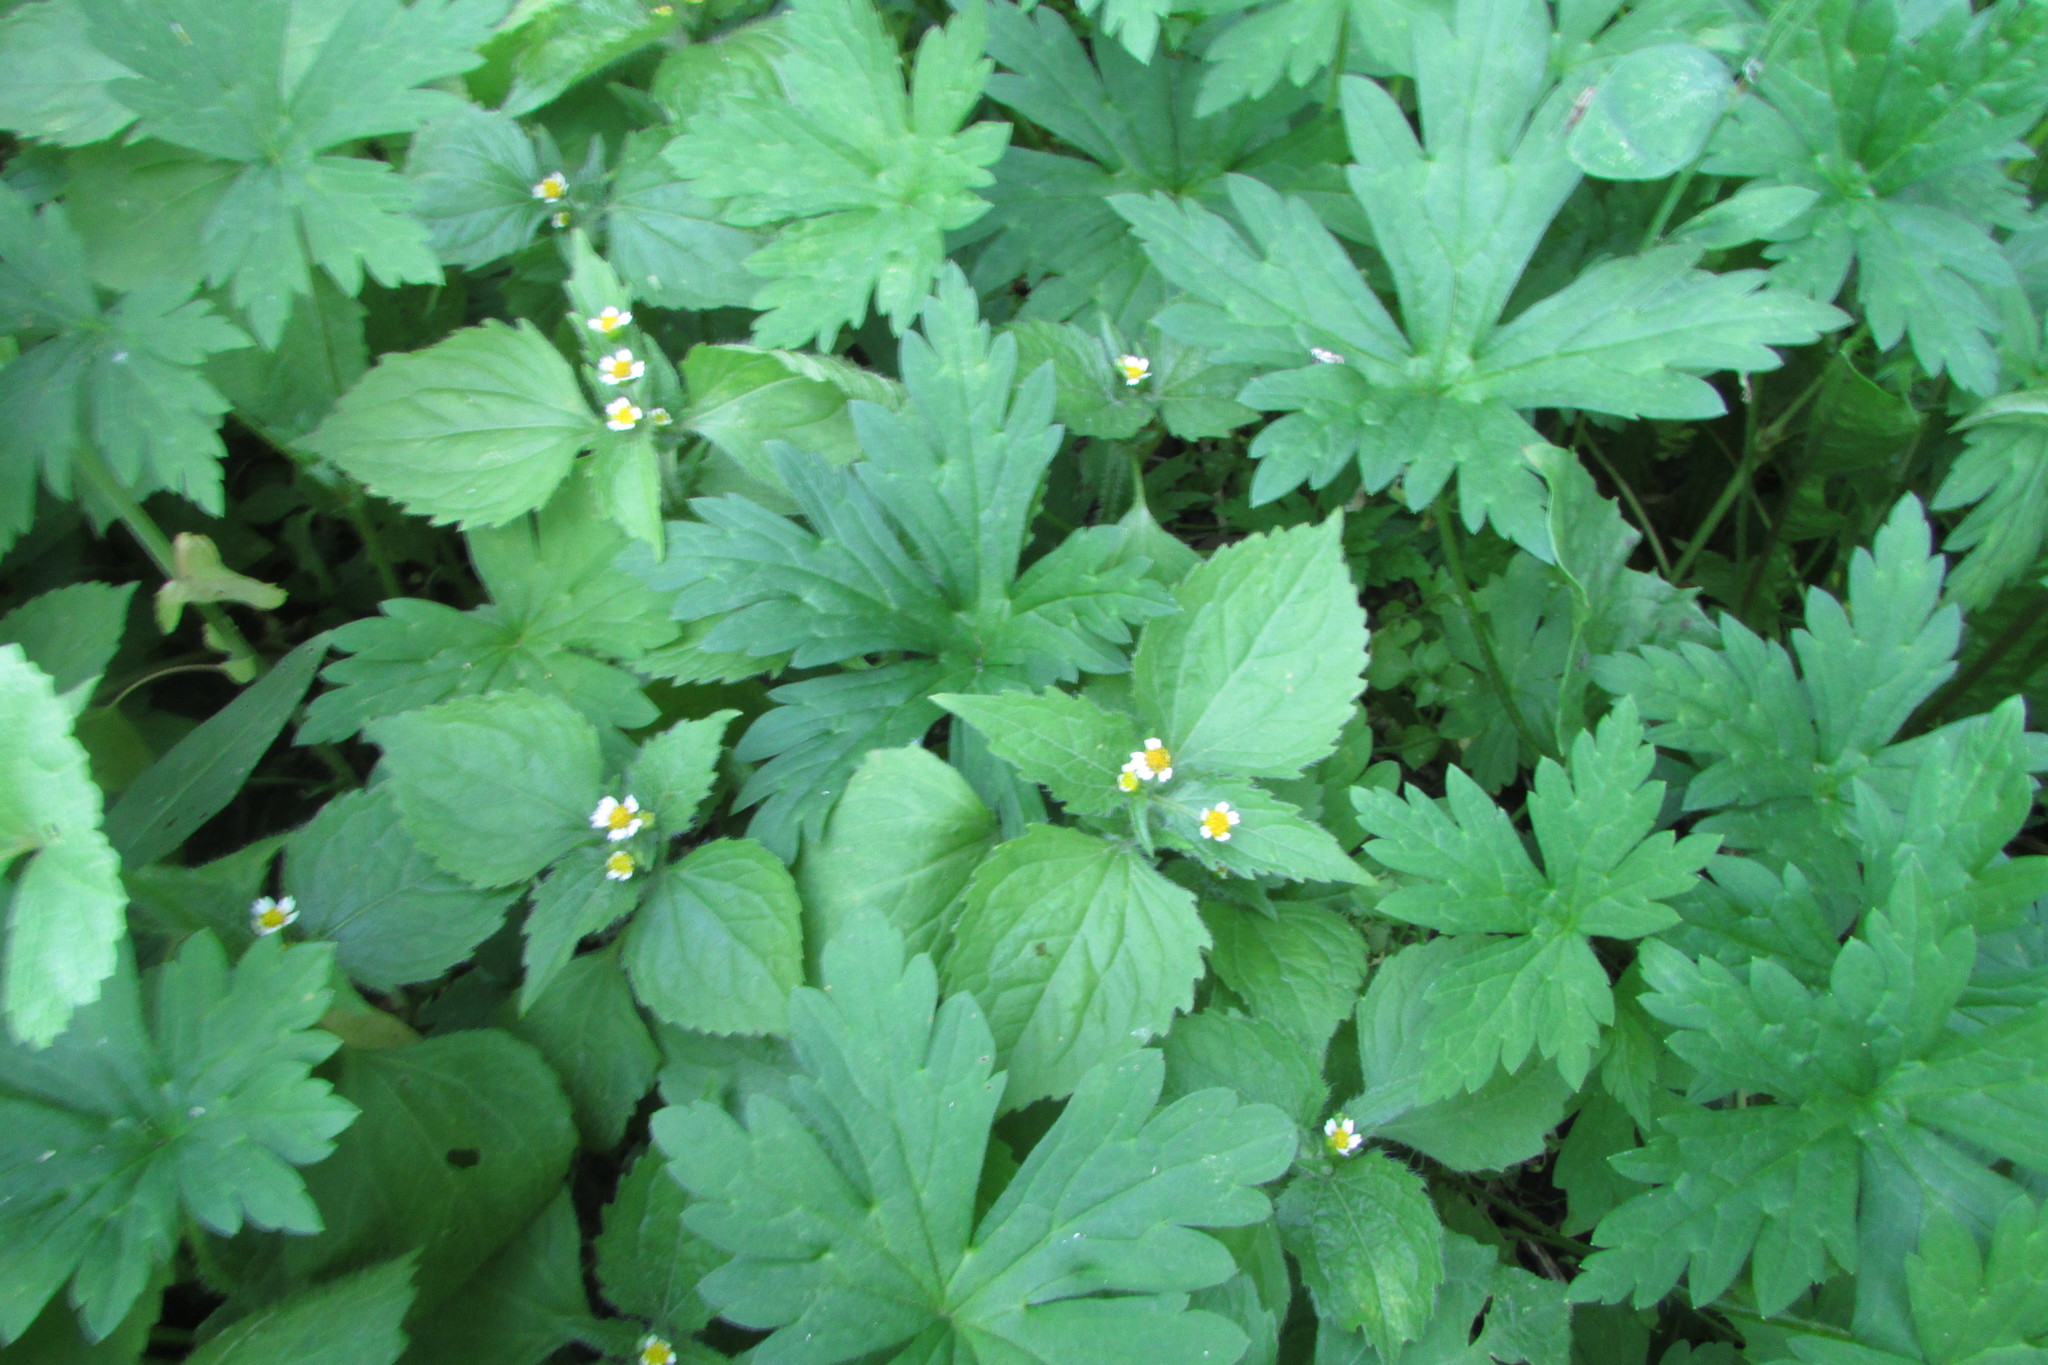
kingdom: Plantae
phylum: Tracheophyta
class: Magnoliopsida
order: Asterales
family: Asteraceae
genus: Galinsoga
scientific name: Galinsoga quadriradiata
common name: Shaggy soldier
